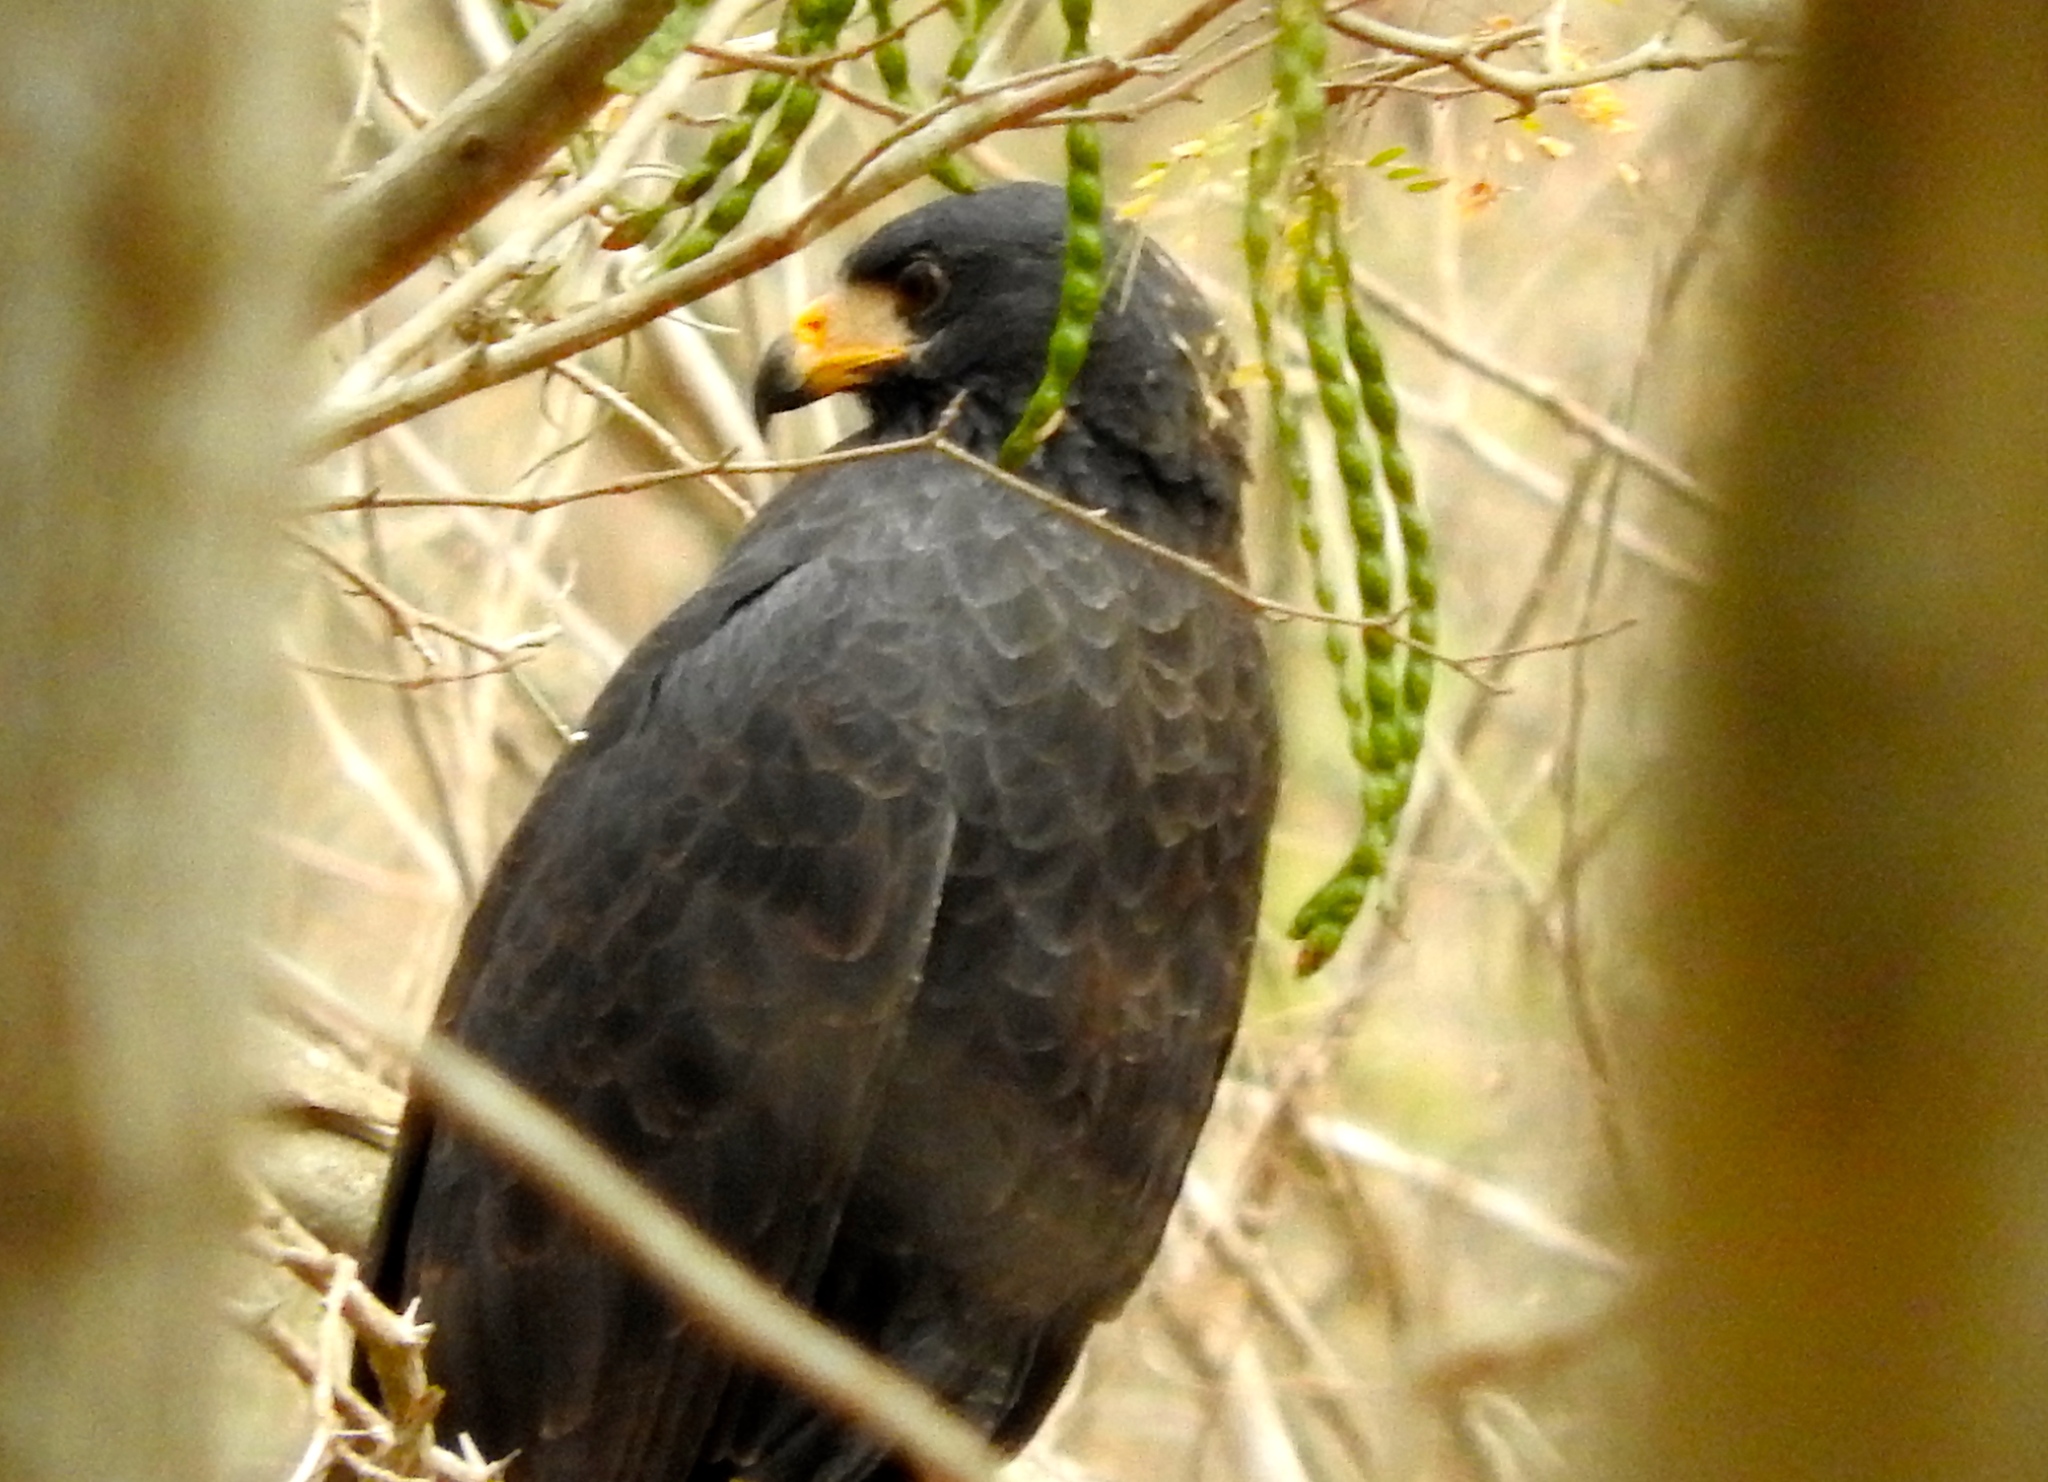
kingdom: Animalia
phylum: Chordata
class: Aves
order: Accipitriformes
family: Accipitridae
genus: Buteogallus
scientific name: Buteogallus anthracinus
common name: Common black hawk
